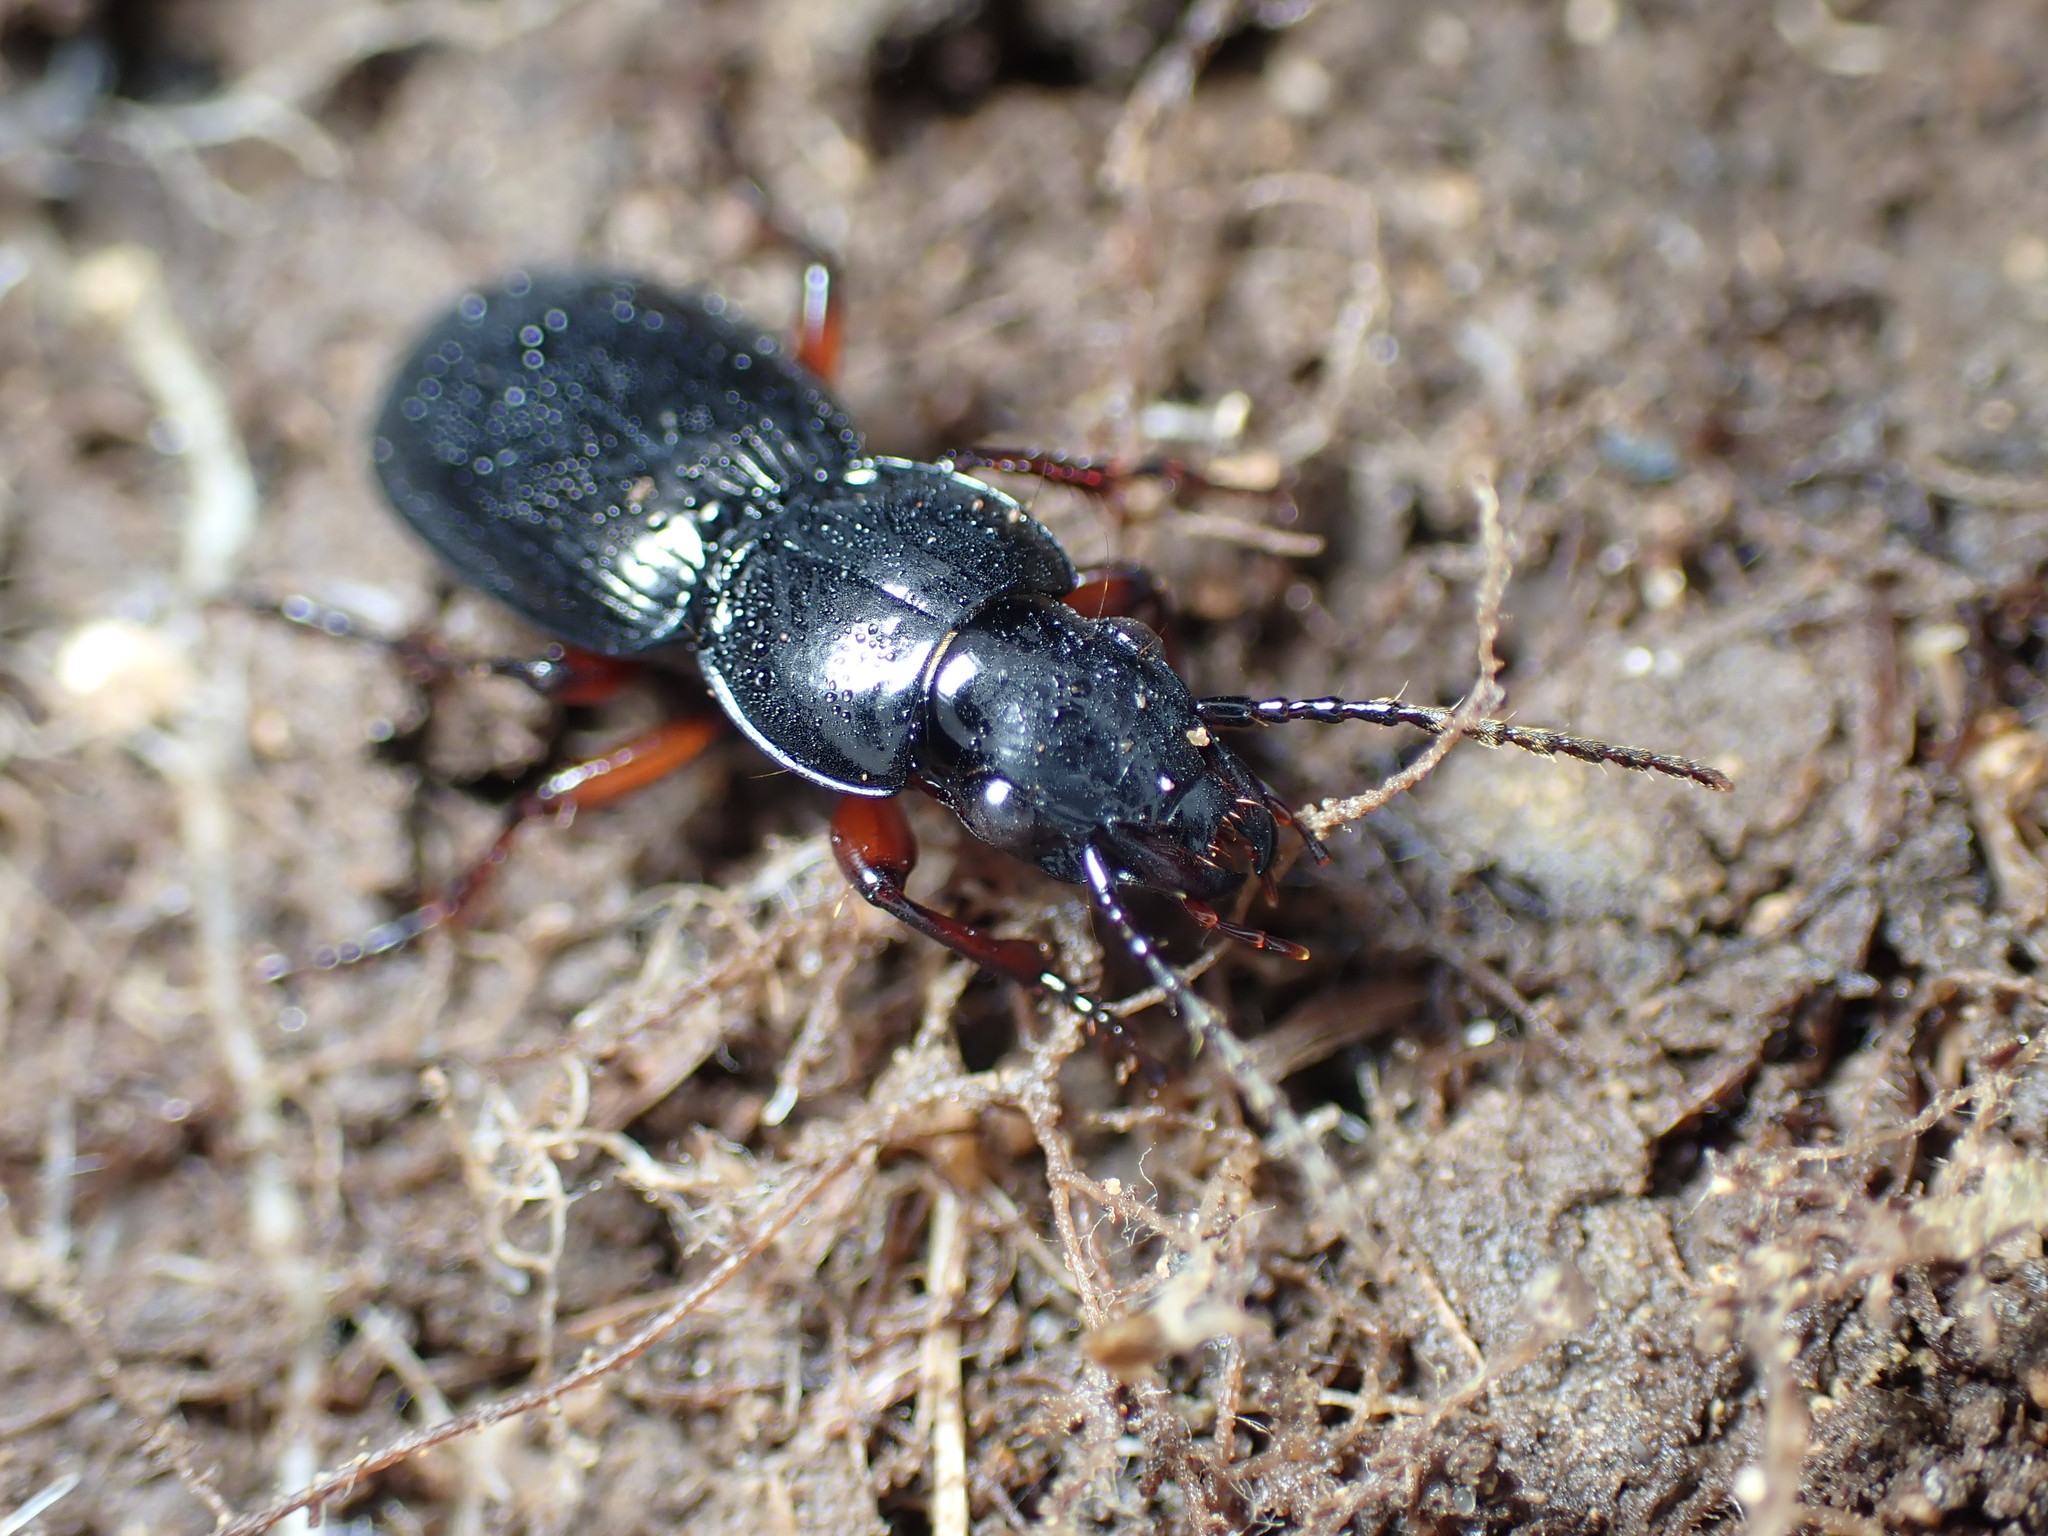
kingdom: Animalia
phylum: Arthropoda
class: Insecta
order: Coleoptera
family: Carabidae
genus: Pterostichus
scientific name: Pterostichus madidus
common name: Black clock
